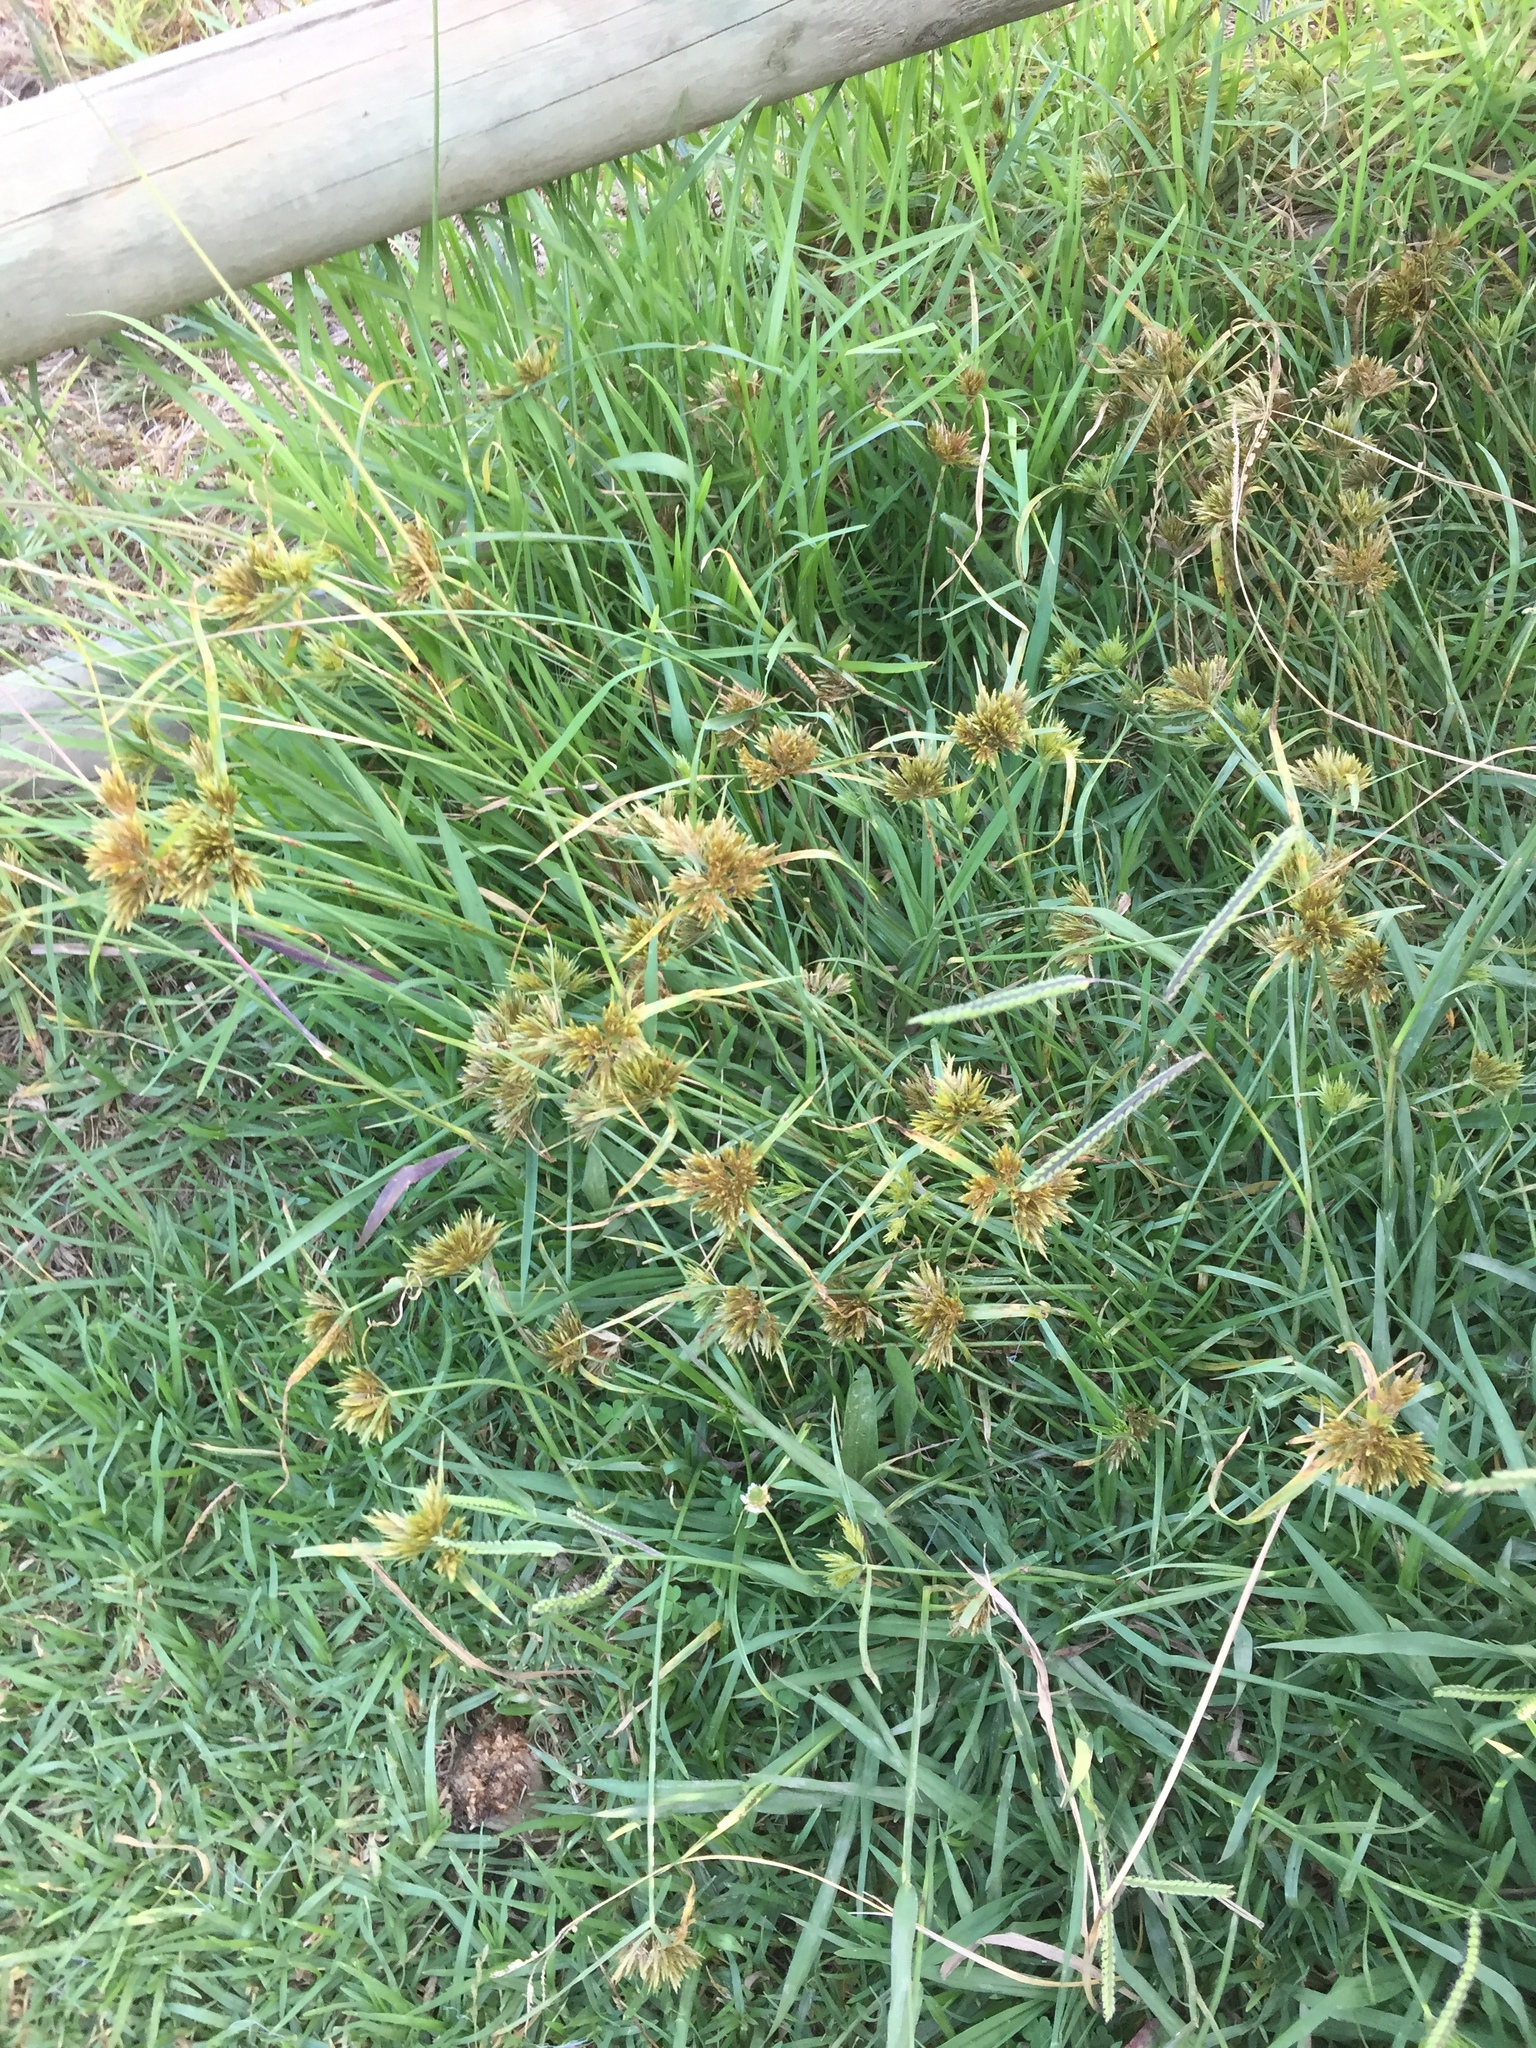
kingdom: Plantae
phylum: Tracheophyta
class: Liliopsida
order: Poales
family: Cyperaceae
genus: Cyperus
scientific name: Cyperus polystachyos
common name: Bunchy flat sedge
